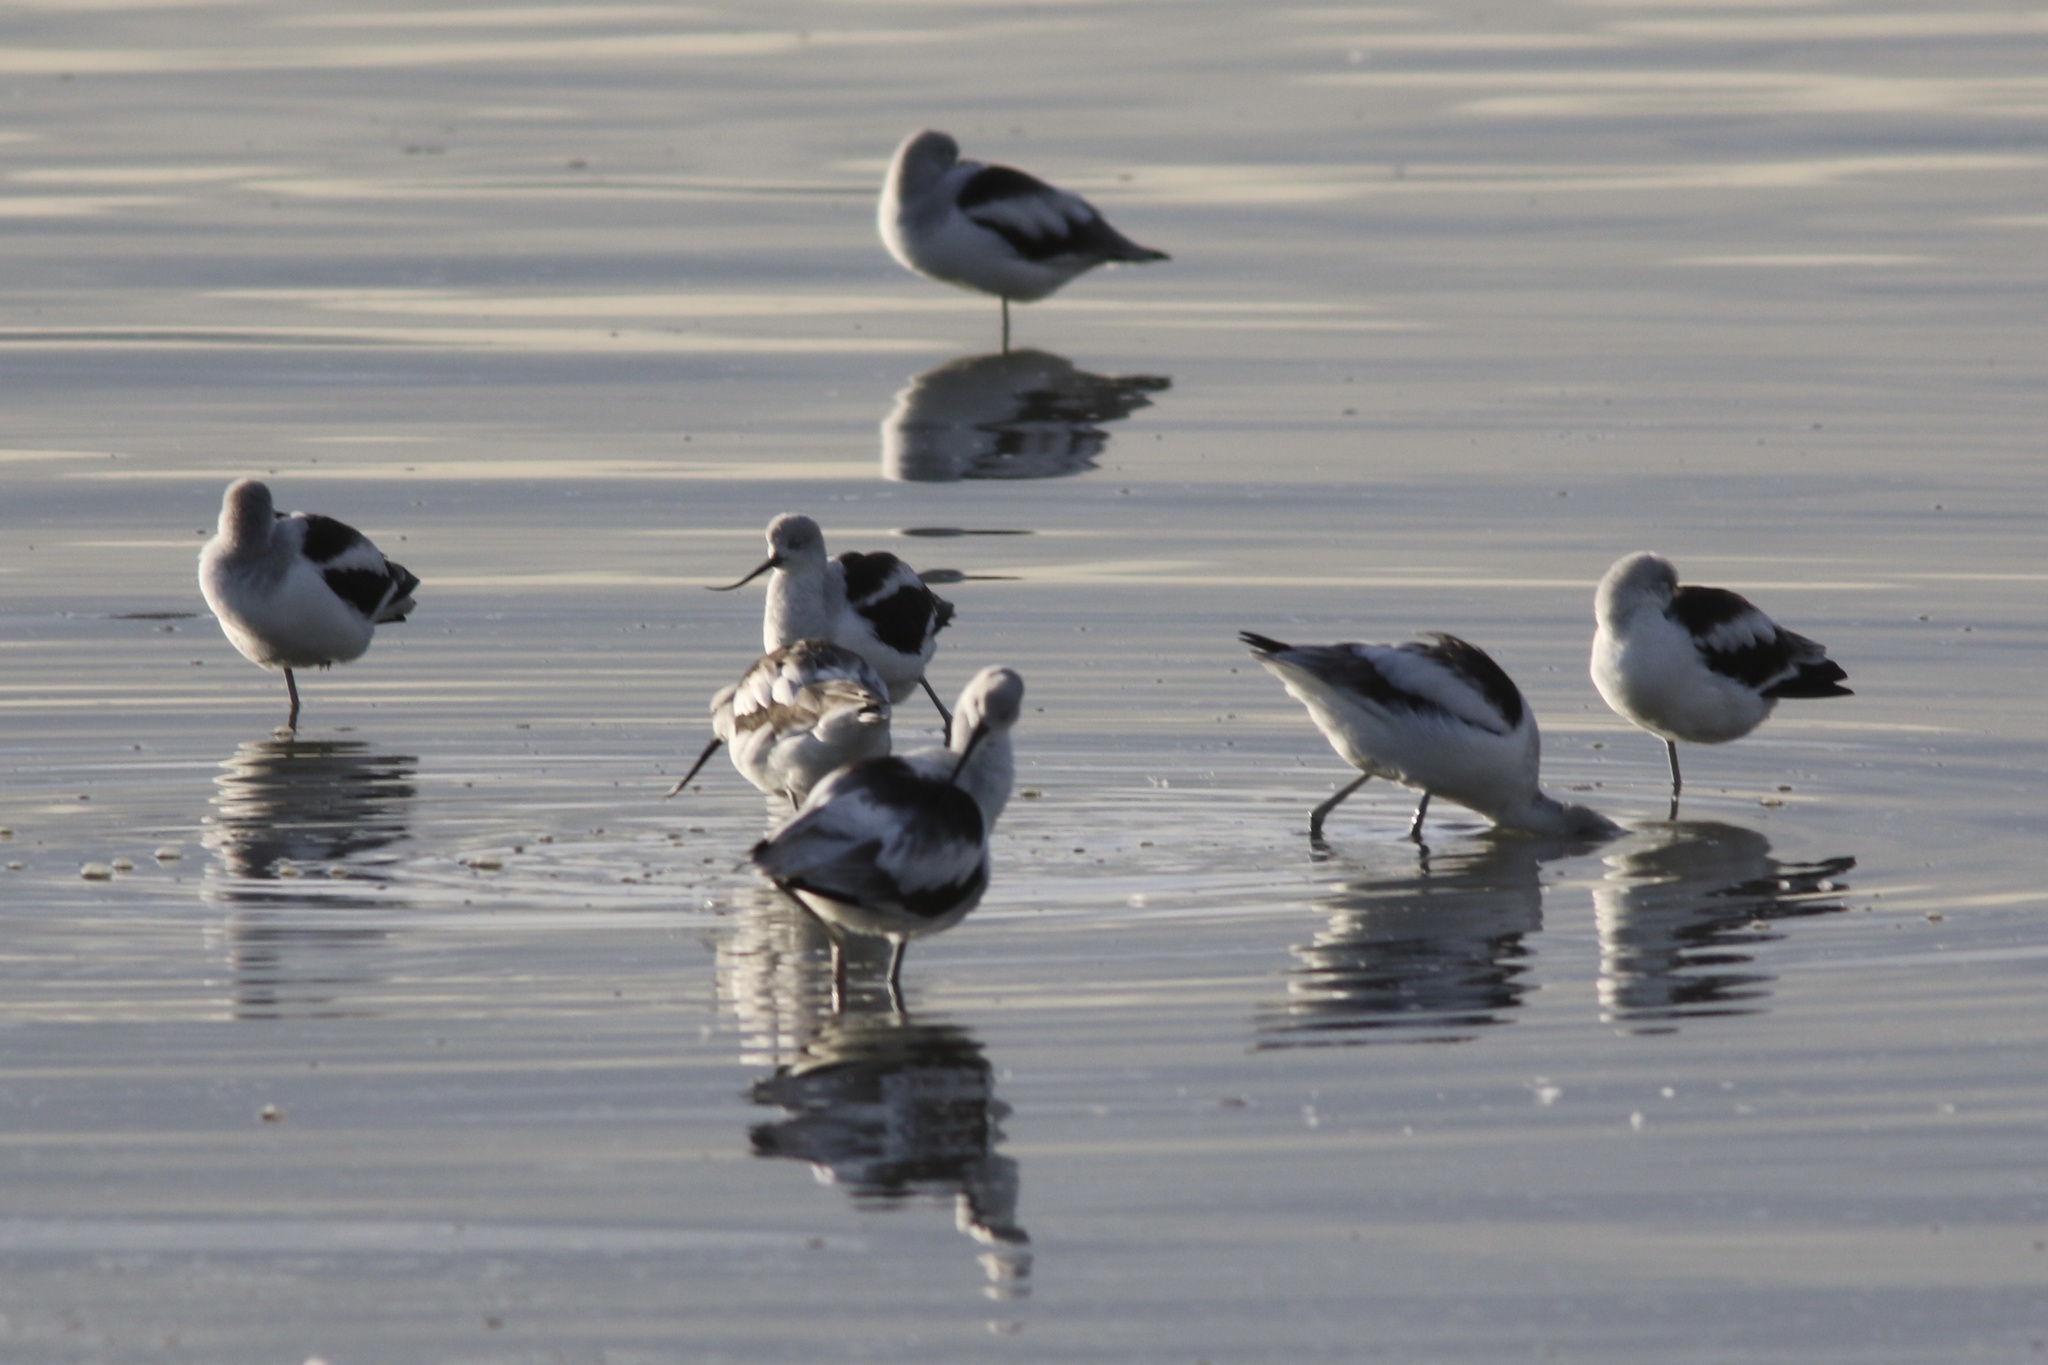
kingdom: Animalia
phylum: Chordata
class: Aves
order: Charadriiformes
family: Recurvirostridae
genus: Recurvirostra
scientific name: Recurvirostra americana
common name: American avocet
